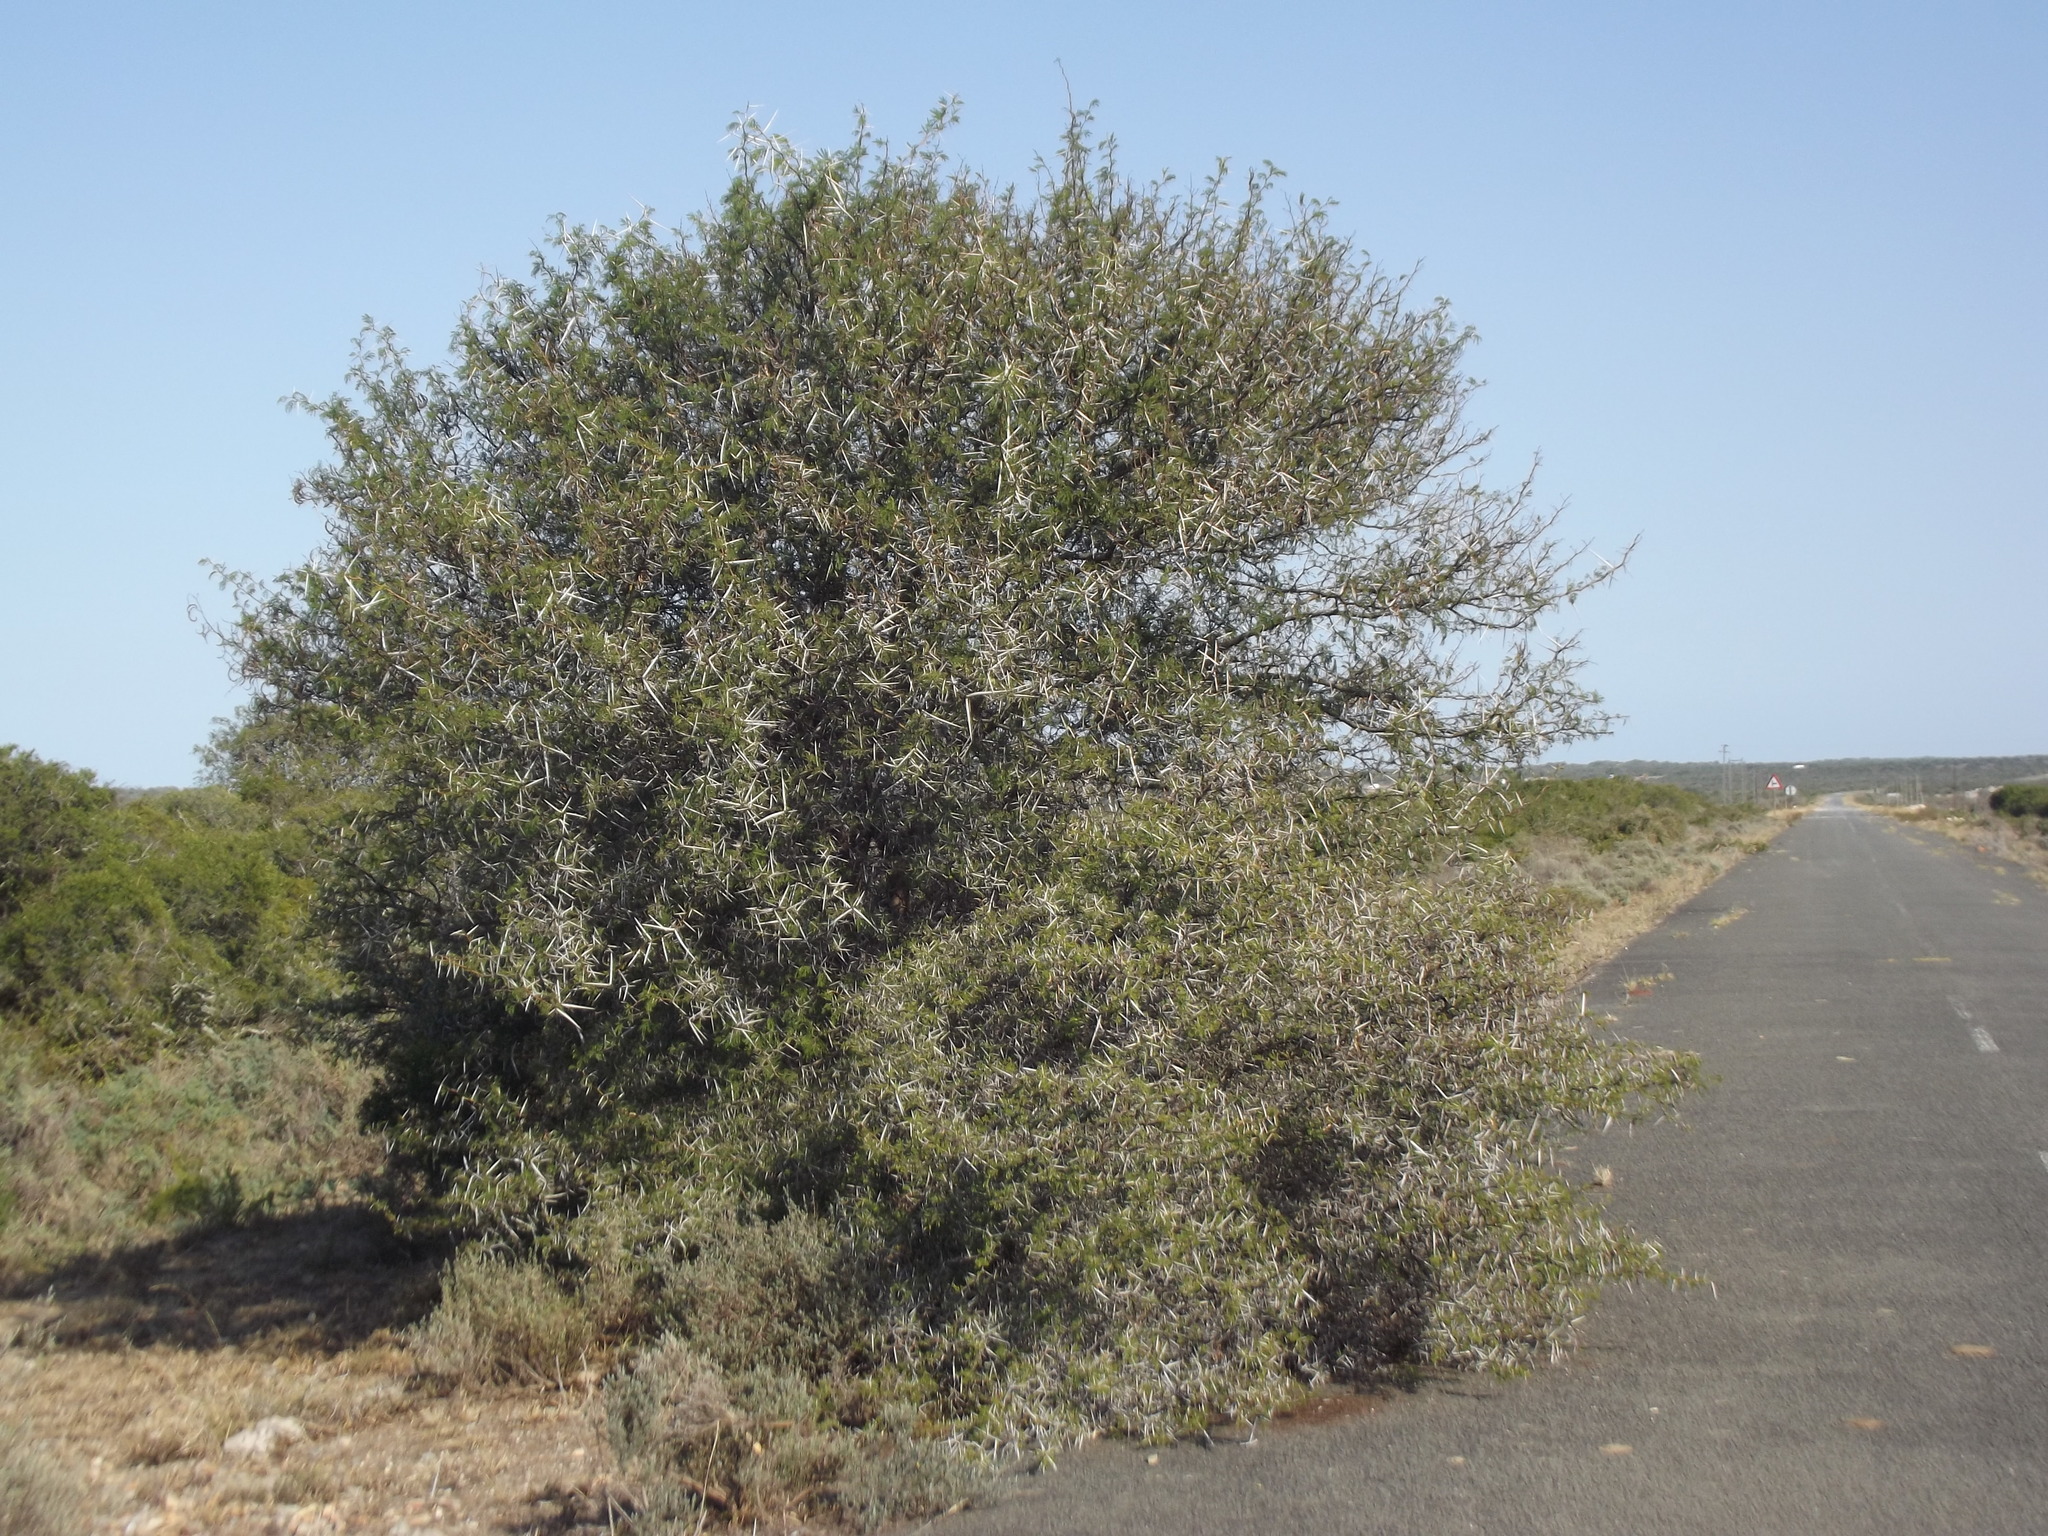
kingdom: Plantae
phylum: Tracheophyta
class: Magnoliopsida
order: Fabales
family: Fabaceae
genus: Vachellia
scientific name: Vachellia karroo
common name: Sweet thorn
